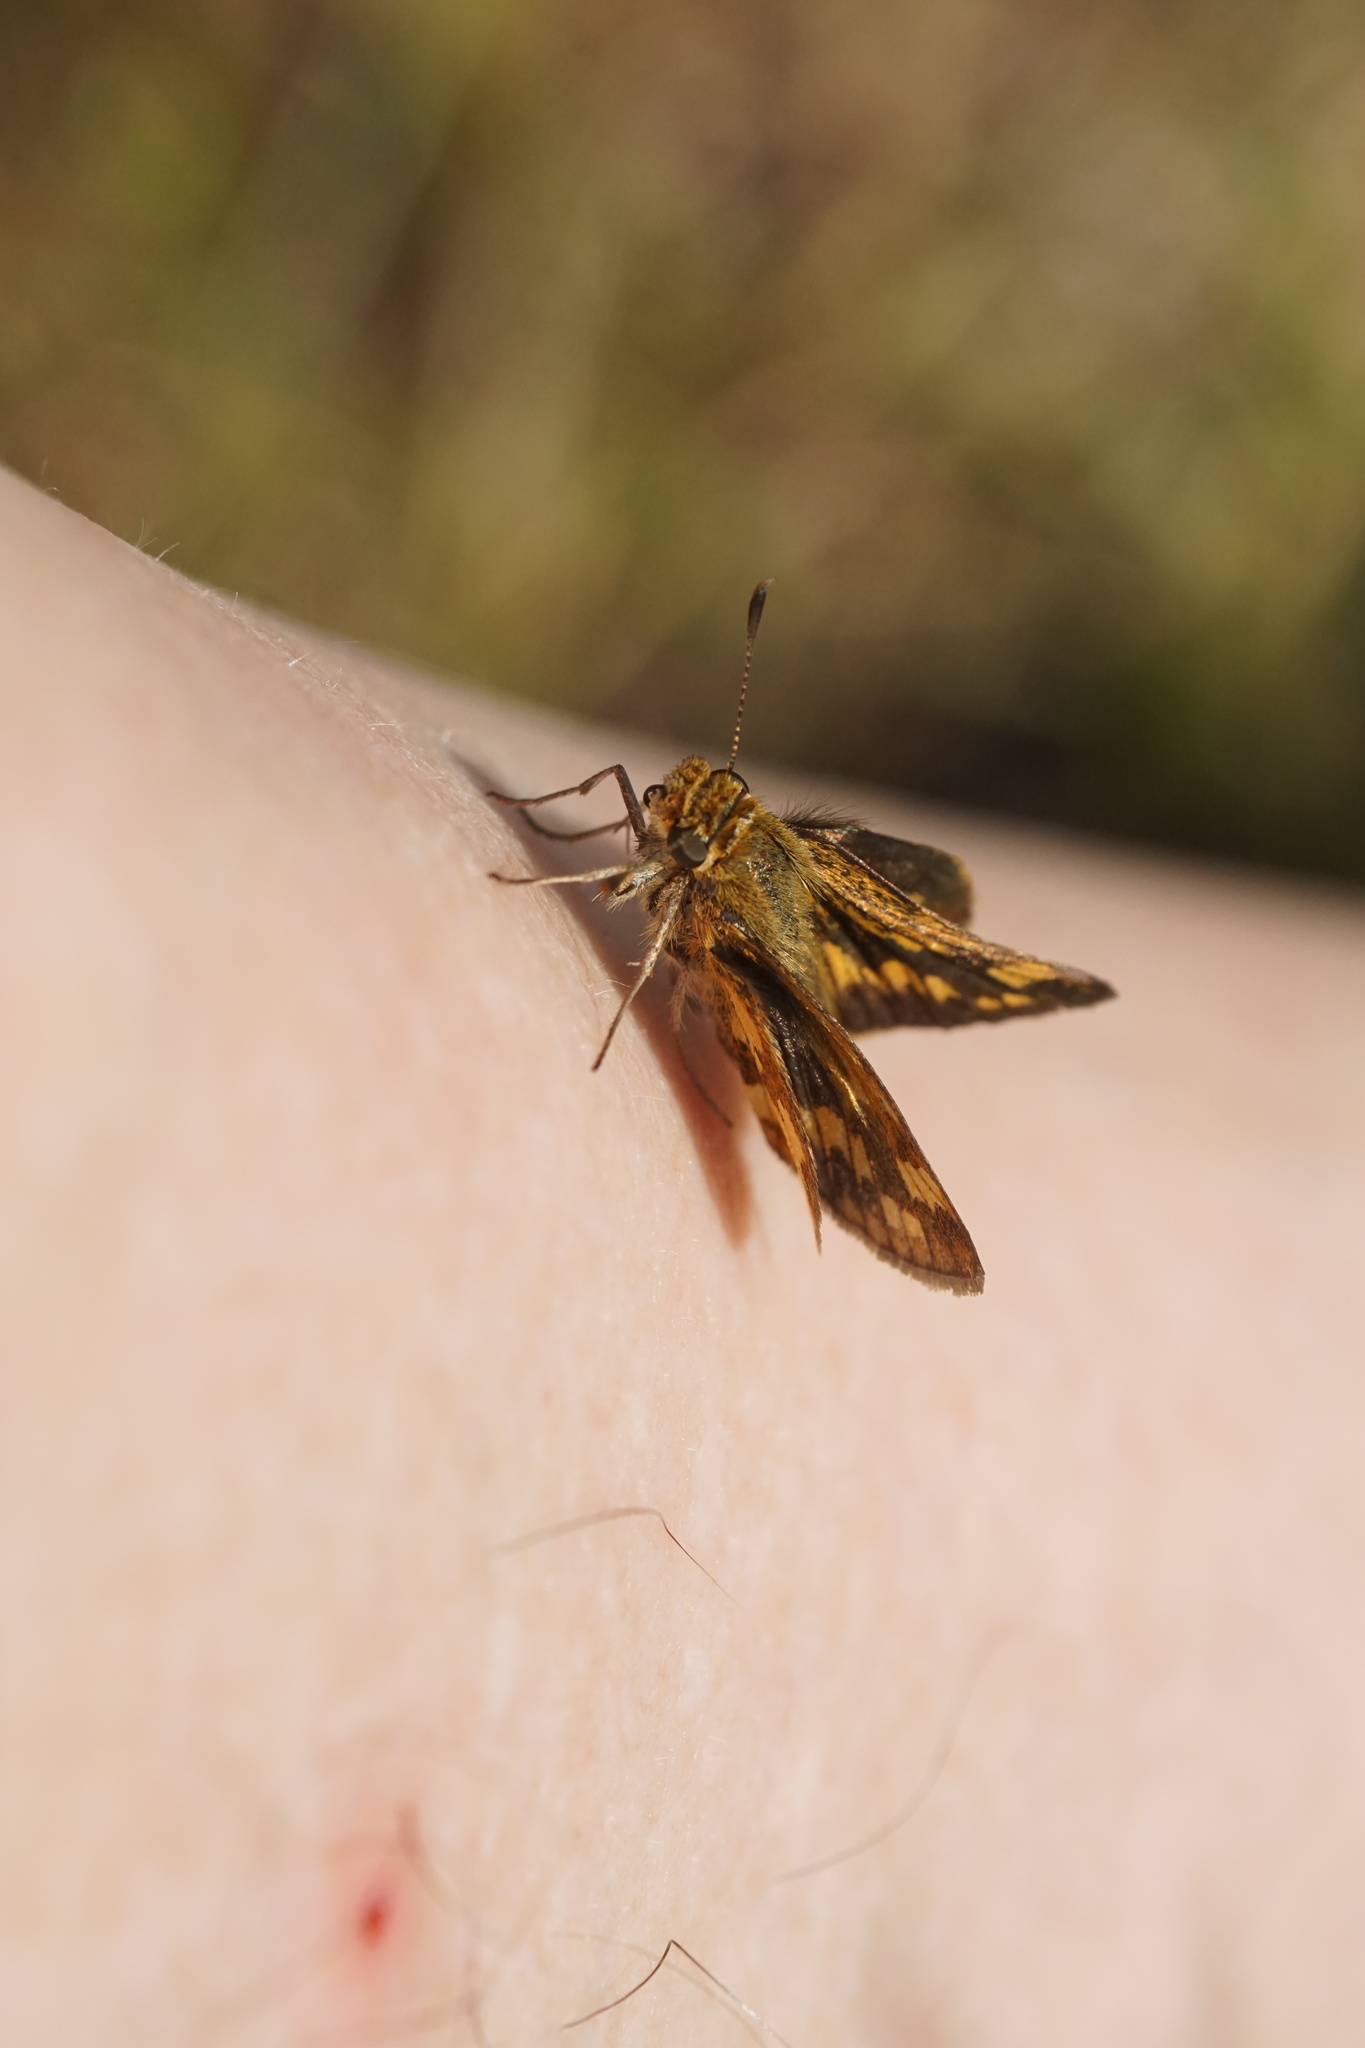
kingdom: Animalia
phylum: Arthropoda
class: Insecta
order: Lepidoptera
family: Hesperiidae
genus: Polites
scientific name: Polites coras
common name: Peck's skipper
